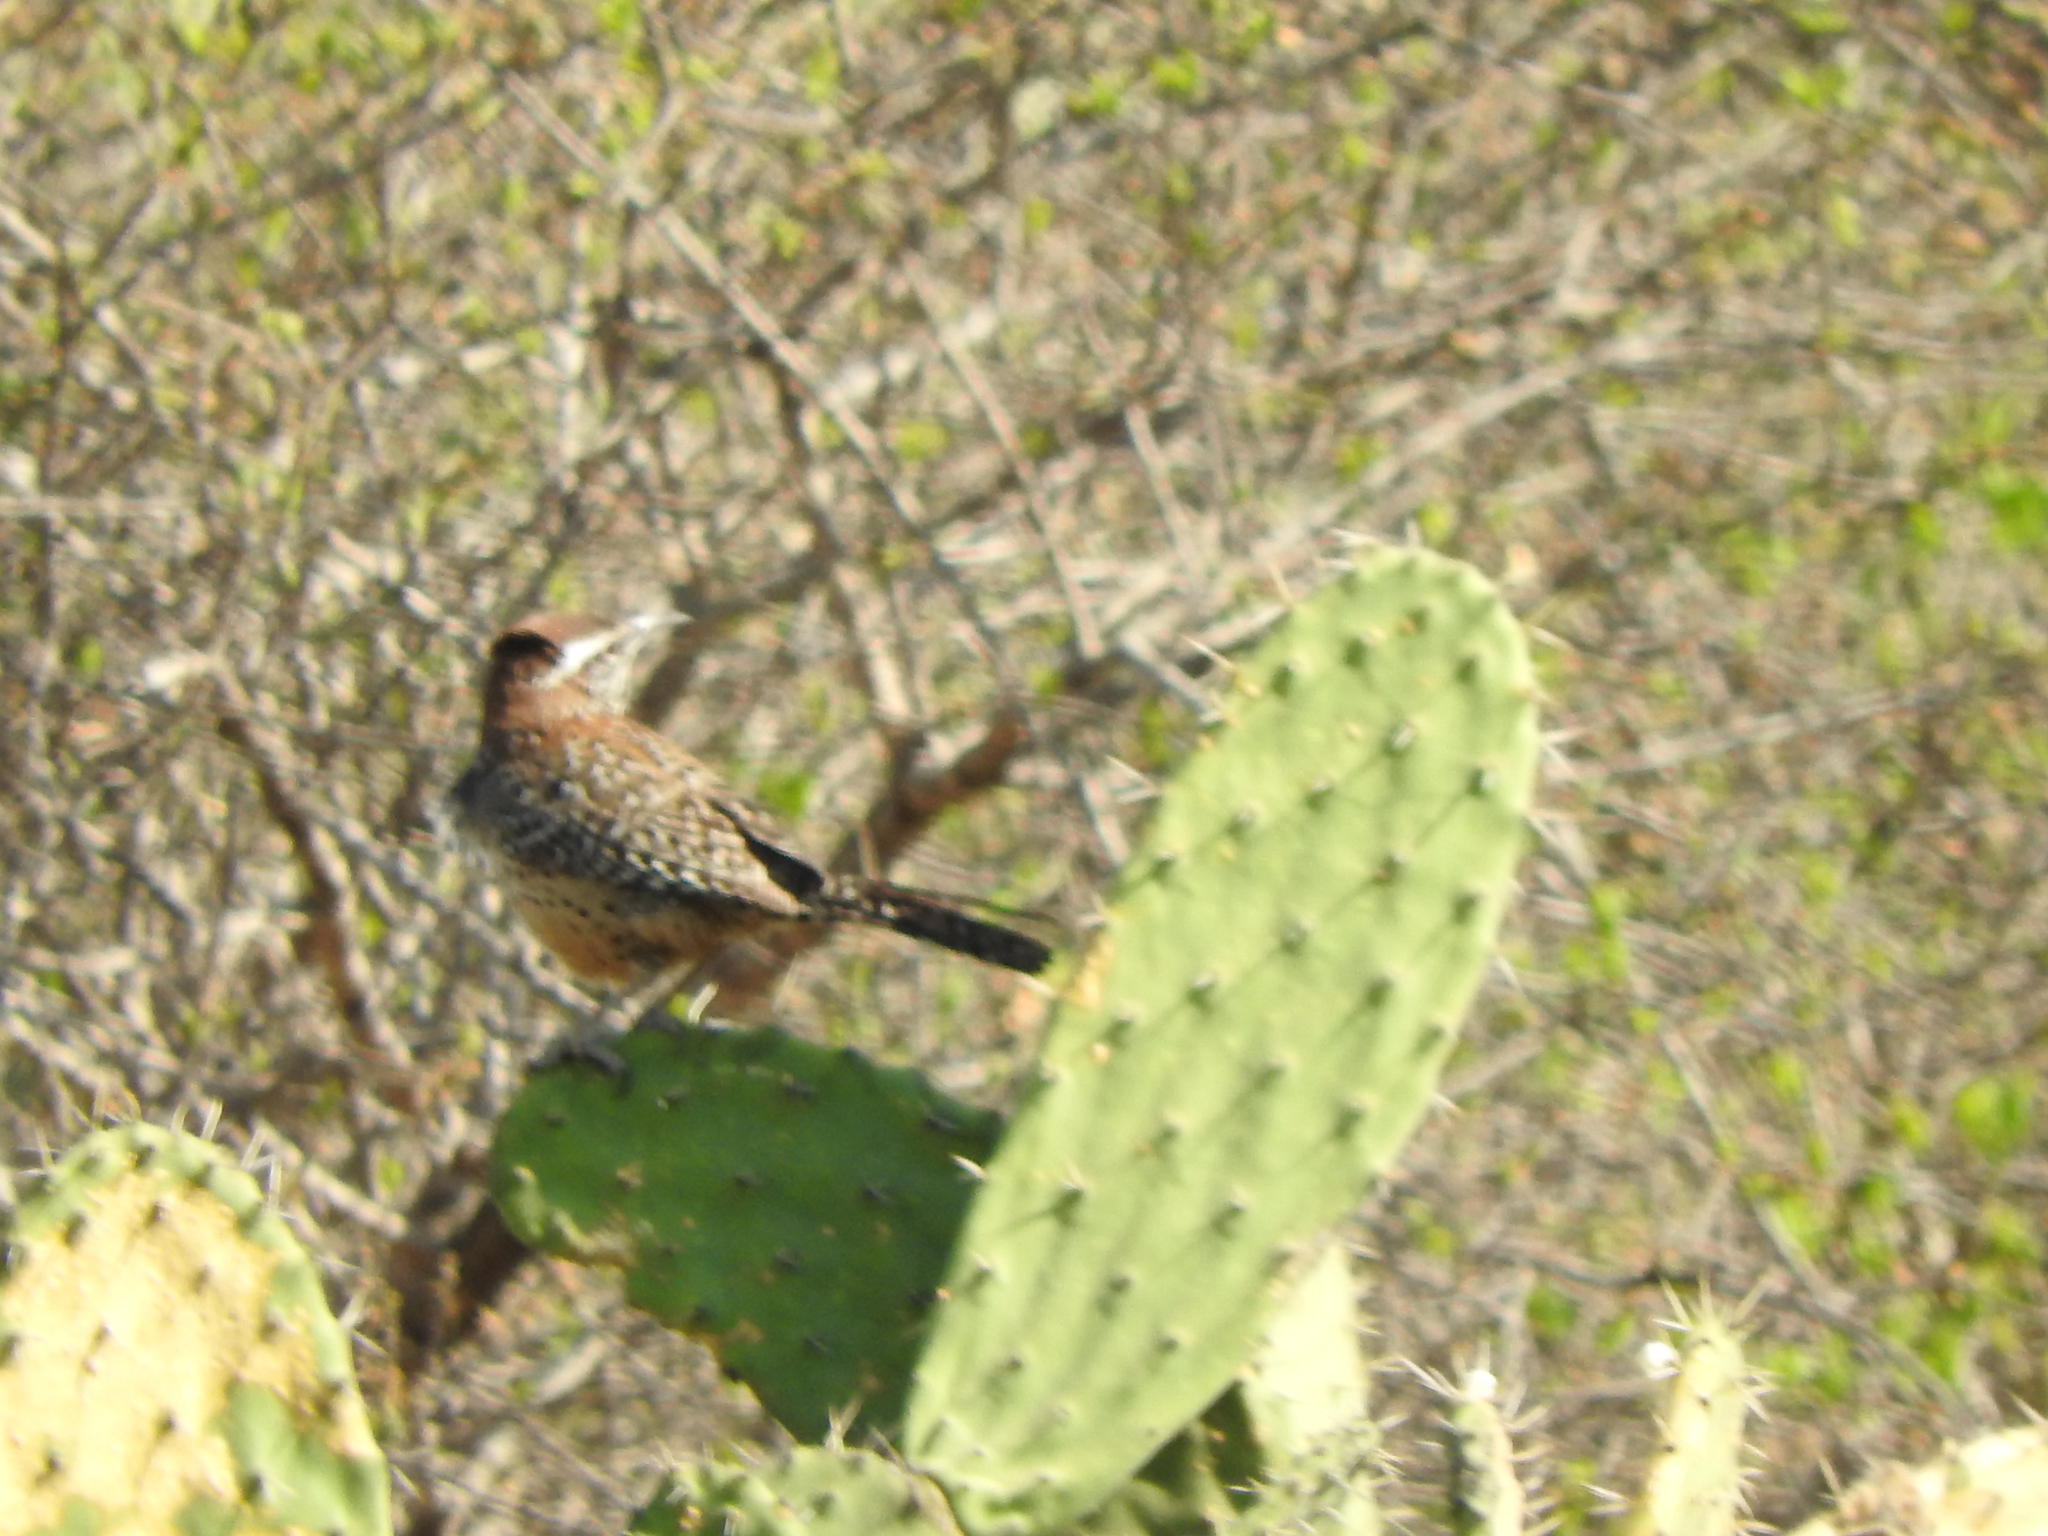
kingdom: Animalia
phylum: Chordata
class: Aves
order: Passeriformes
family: Troglodytidae
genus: Campylorhynchus
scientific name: Campylorhynchus brunneicapillus
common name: Cactus wren
